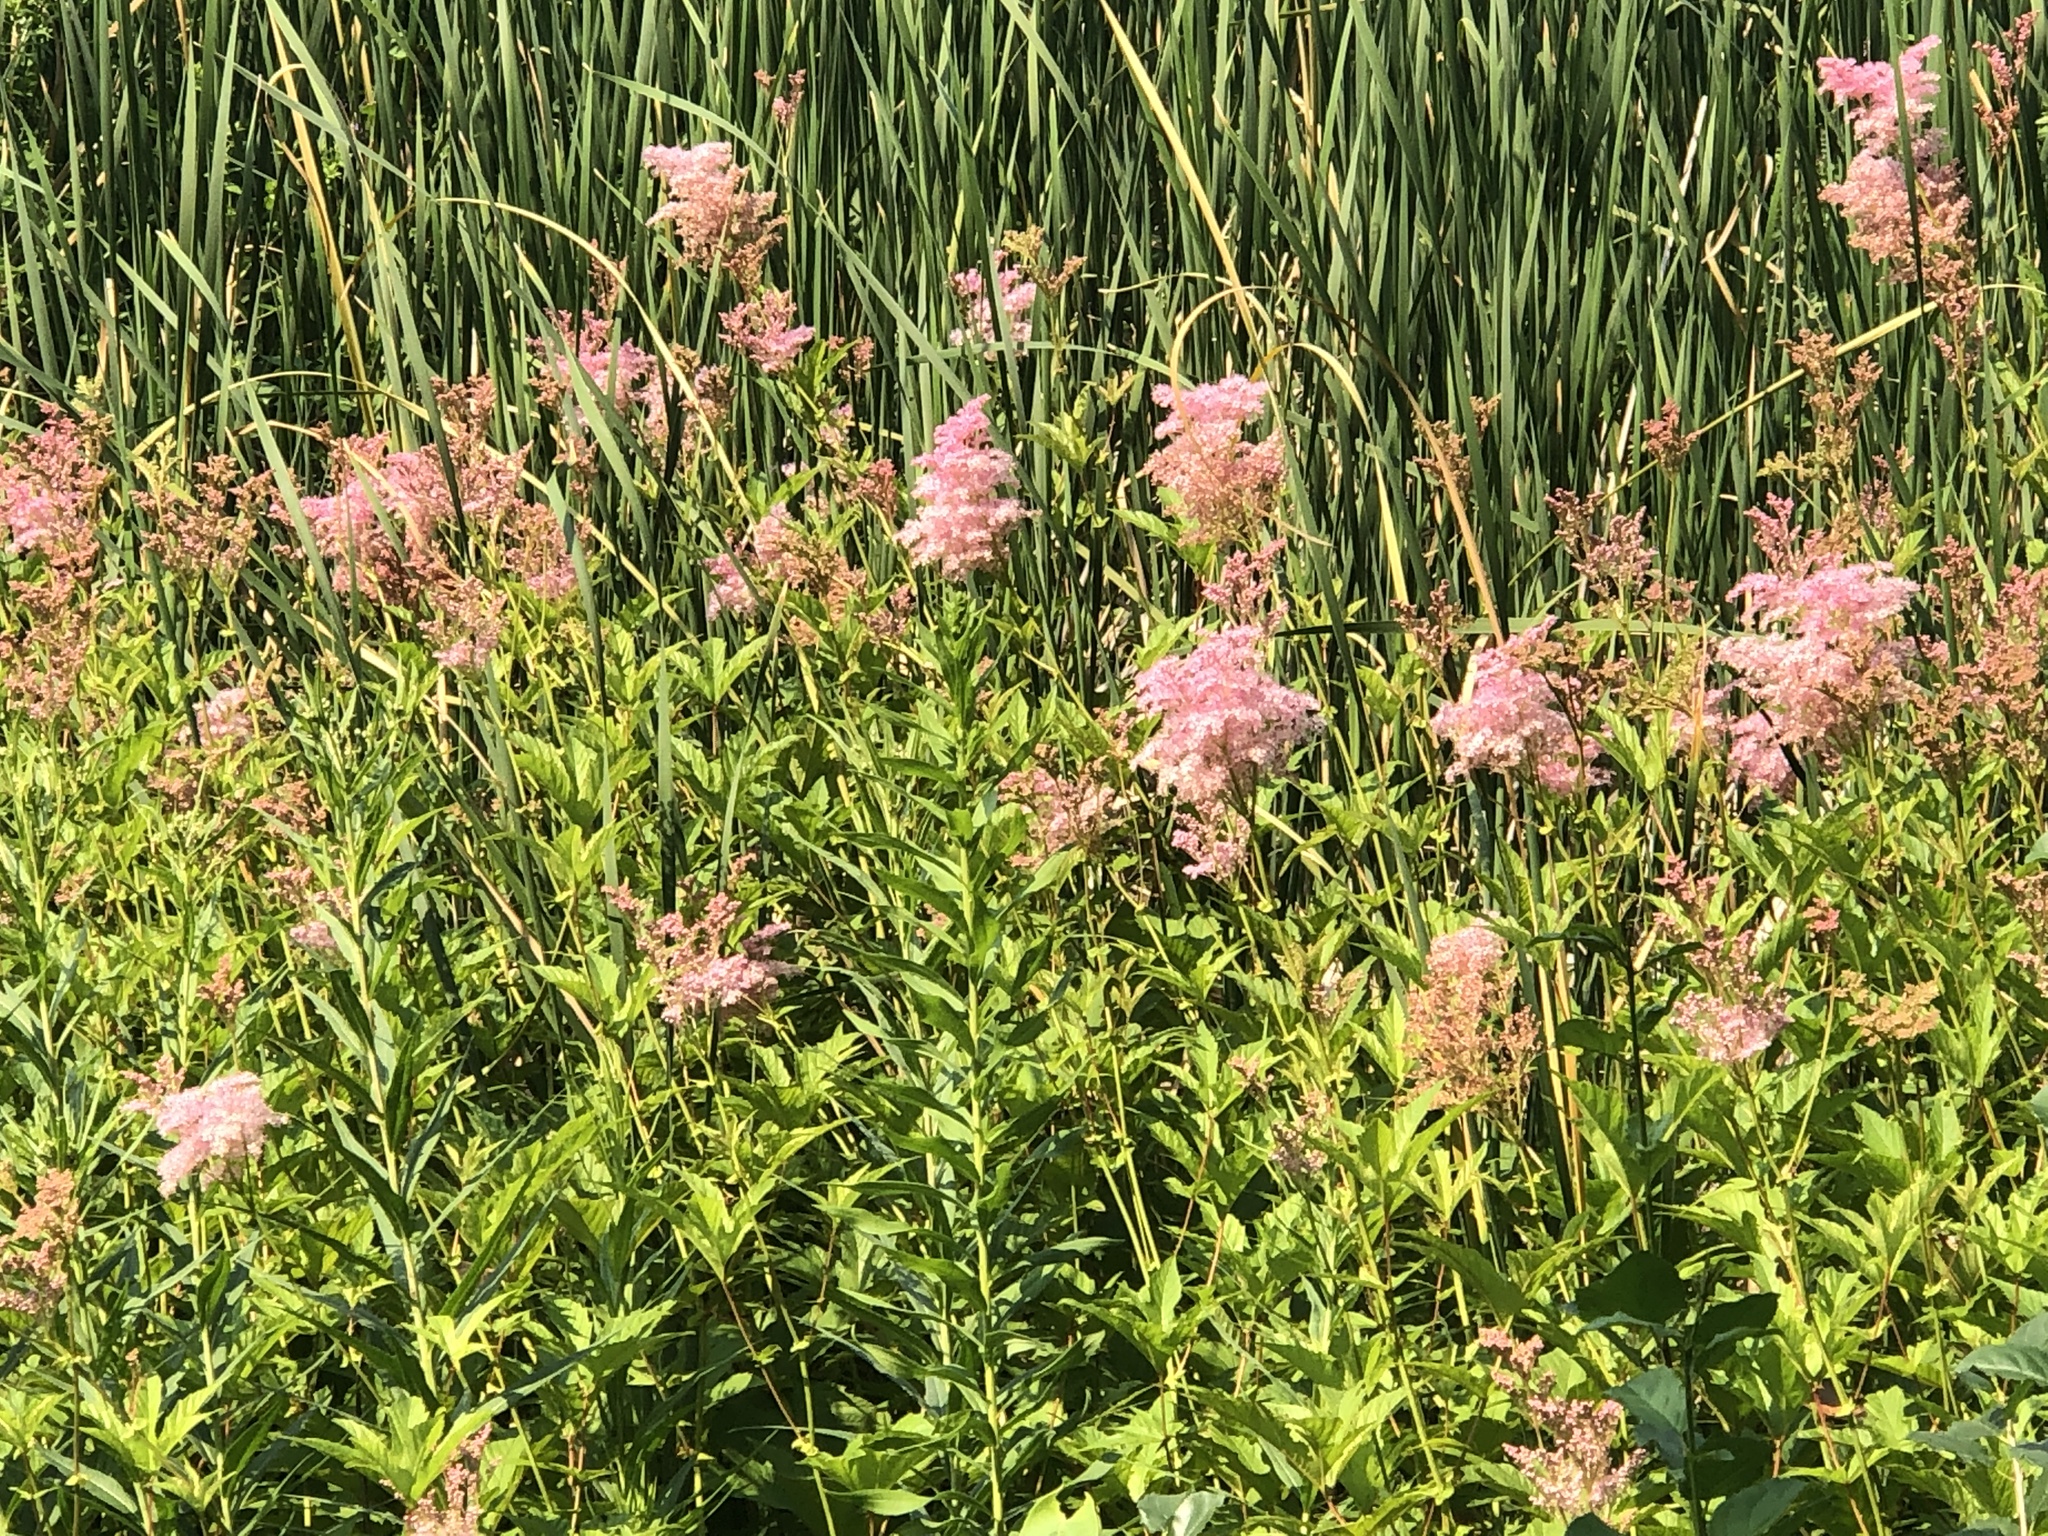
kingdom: Plantae
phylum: Tracheophyta
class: Magnoliopsida
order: Rosales
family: Rosaceae
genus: Filipendula
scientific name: Filipendula rubra
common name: Queen-of-the-prairie
